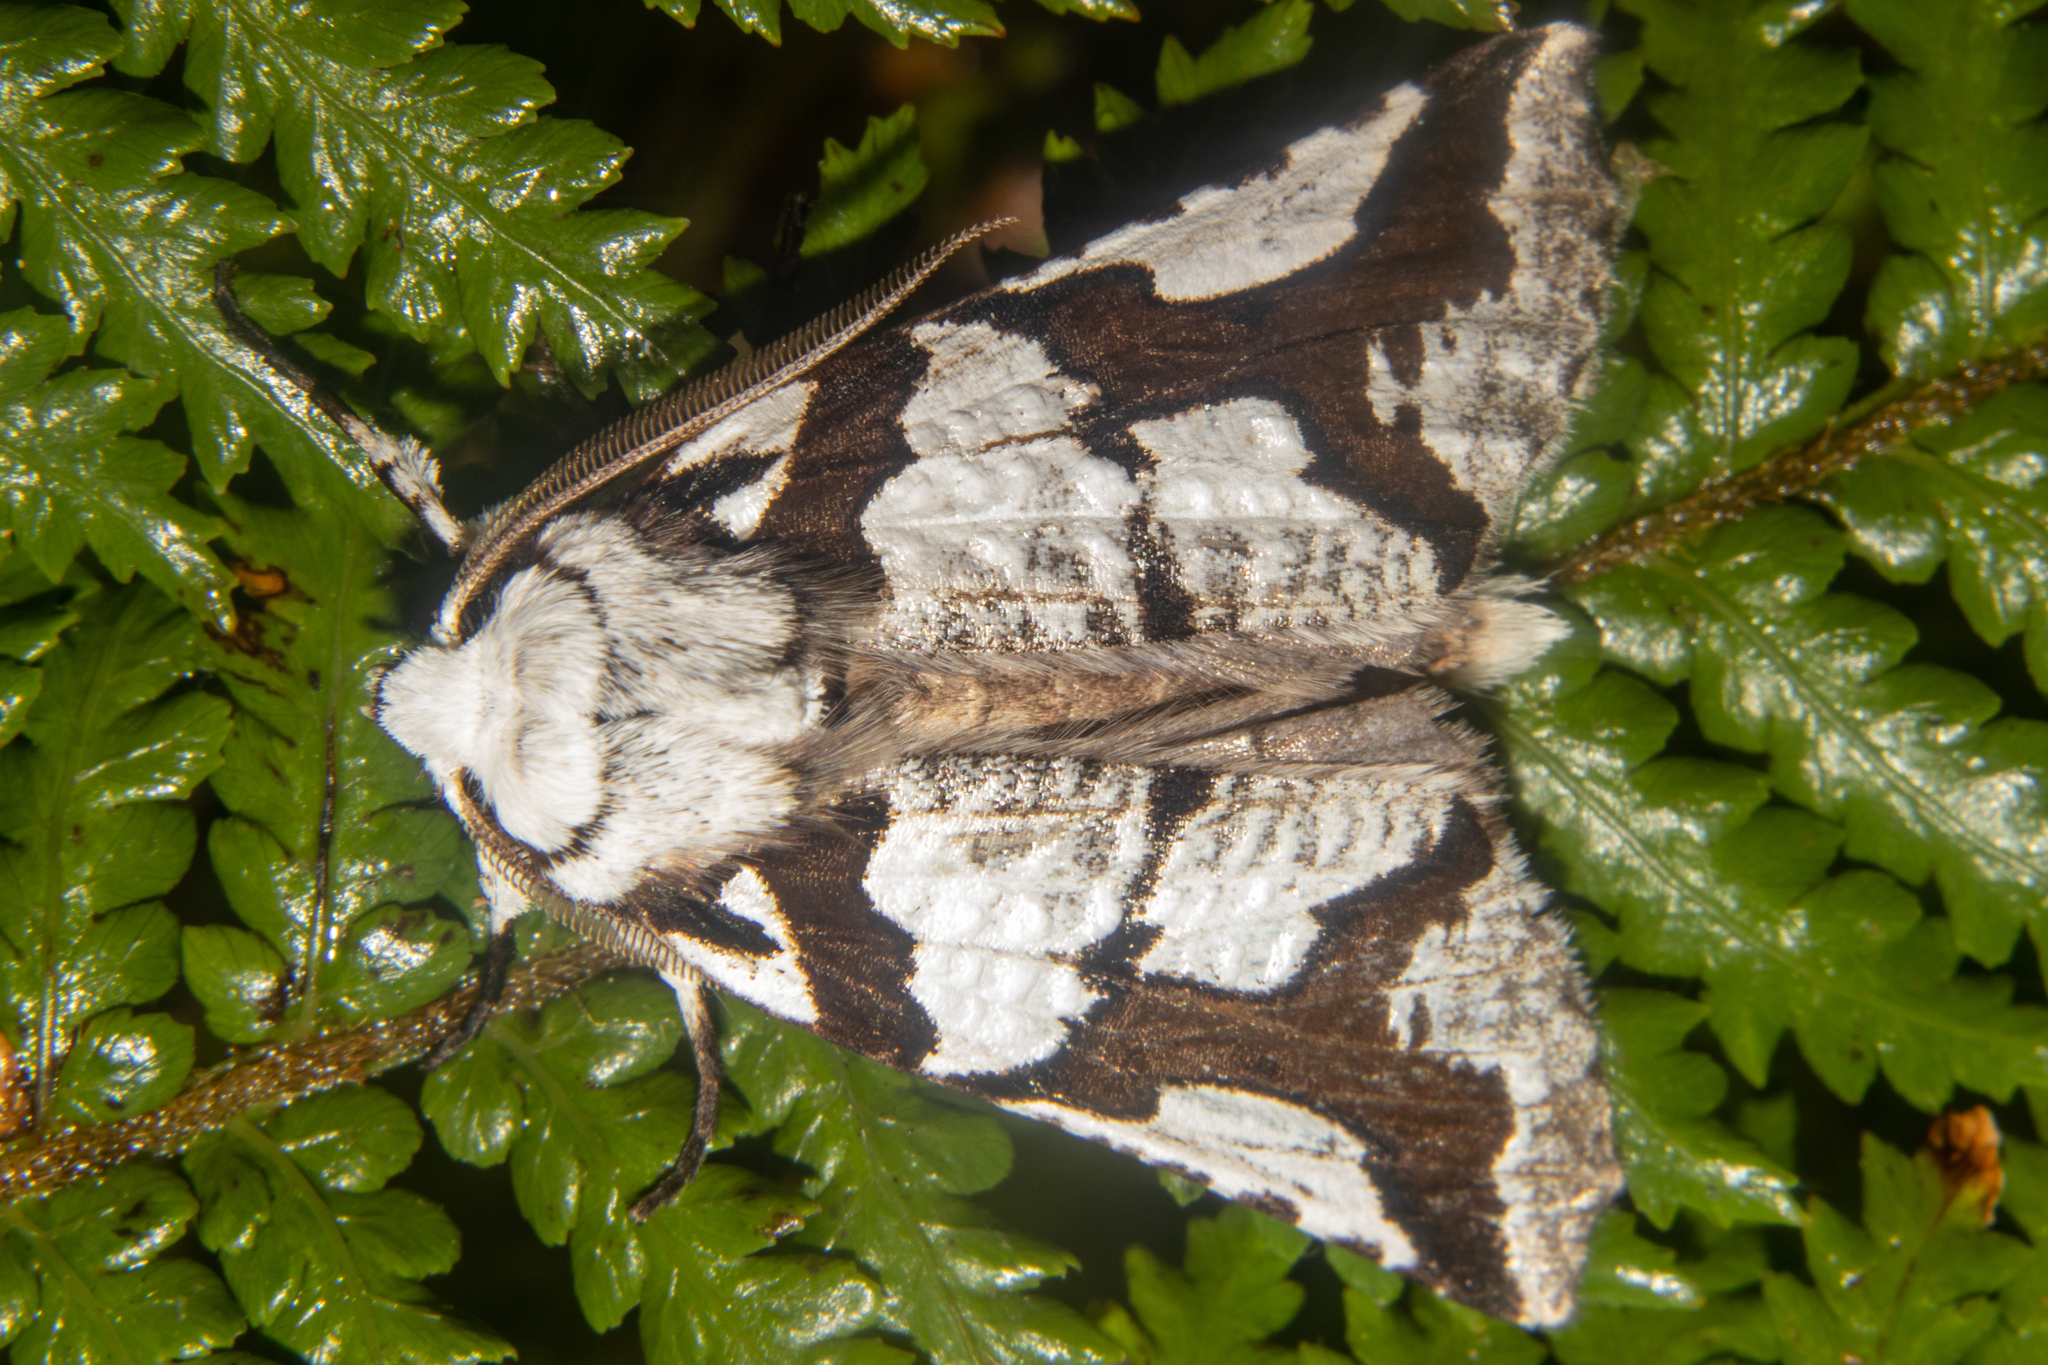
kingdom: Animalia
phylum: Arthropoda
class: Insecta
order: Lepidoptera
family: Geometridae
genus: Declana
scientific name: Declana
